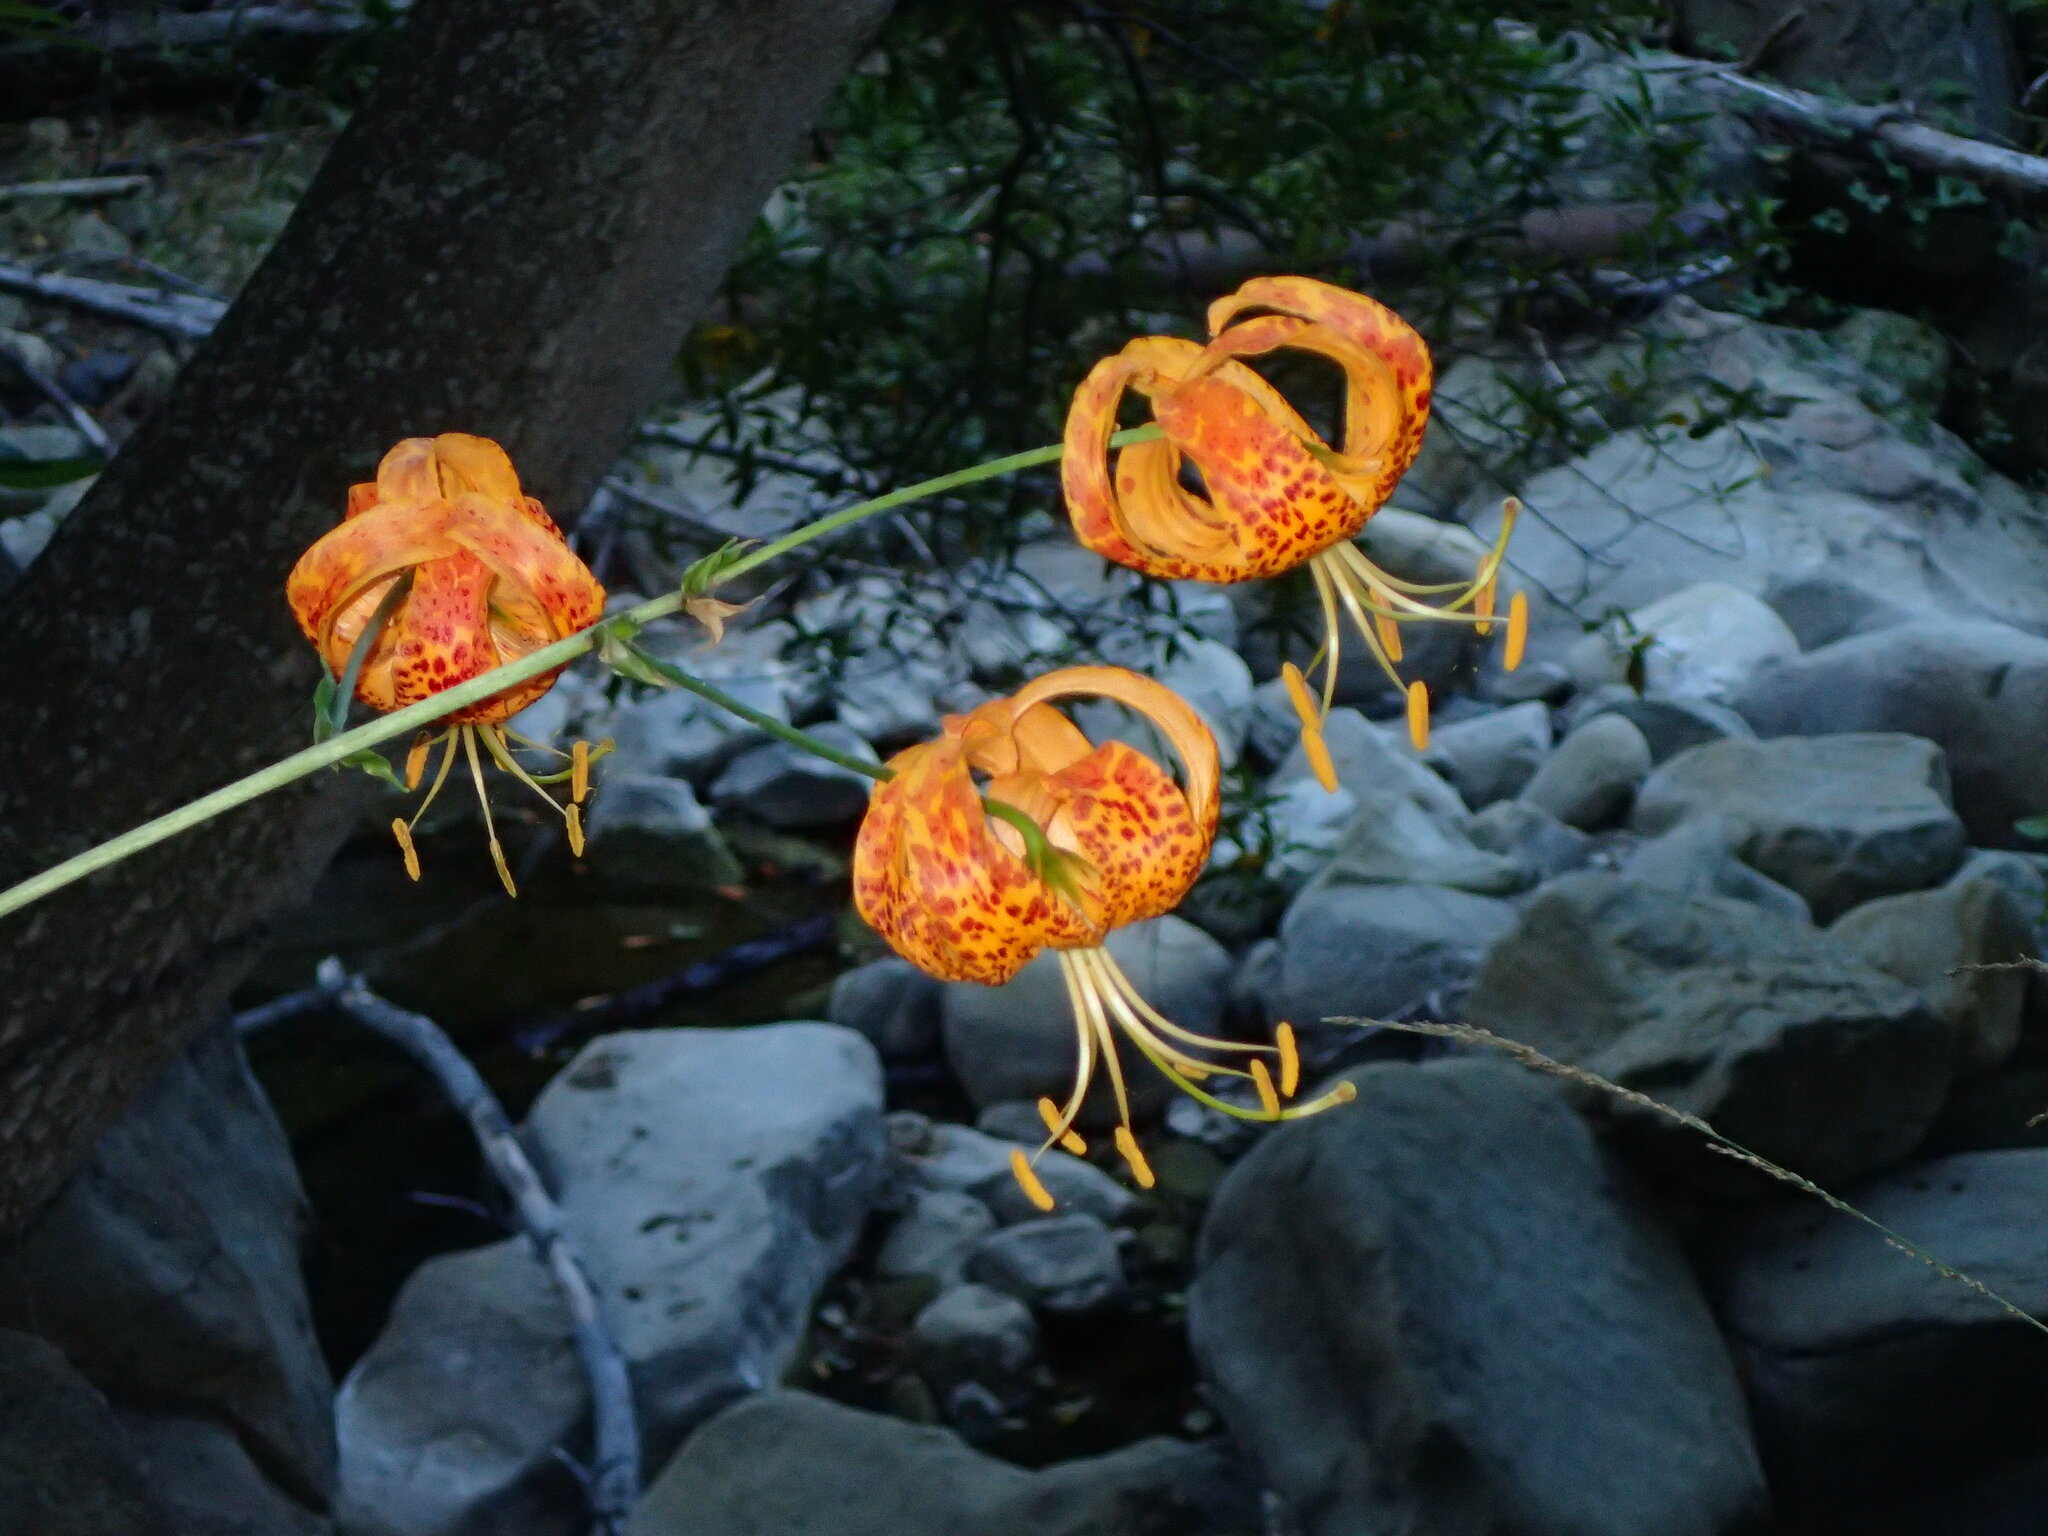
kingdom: Plantae
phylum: Tracheophyta
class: Liliopsida
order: Liliales
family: Liliaceae
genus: Lilium
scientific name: Lilium humboldtii
